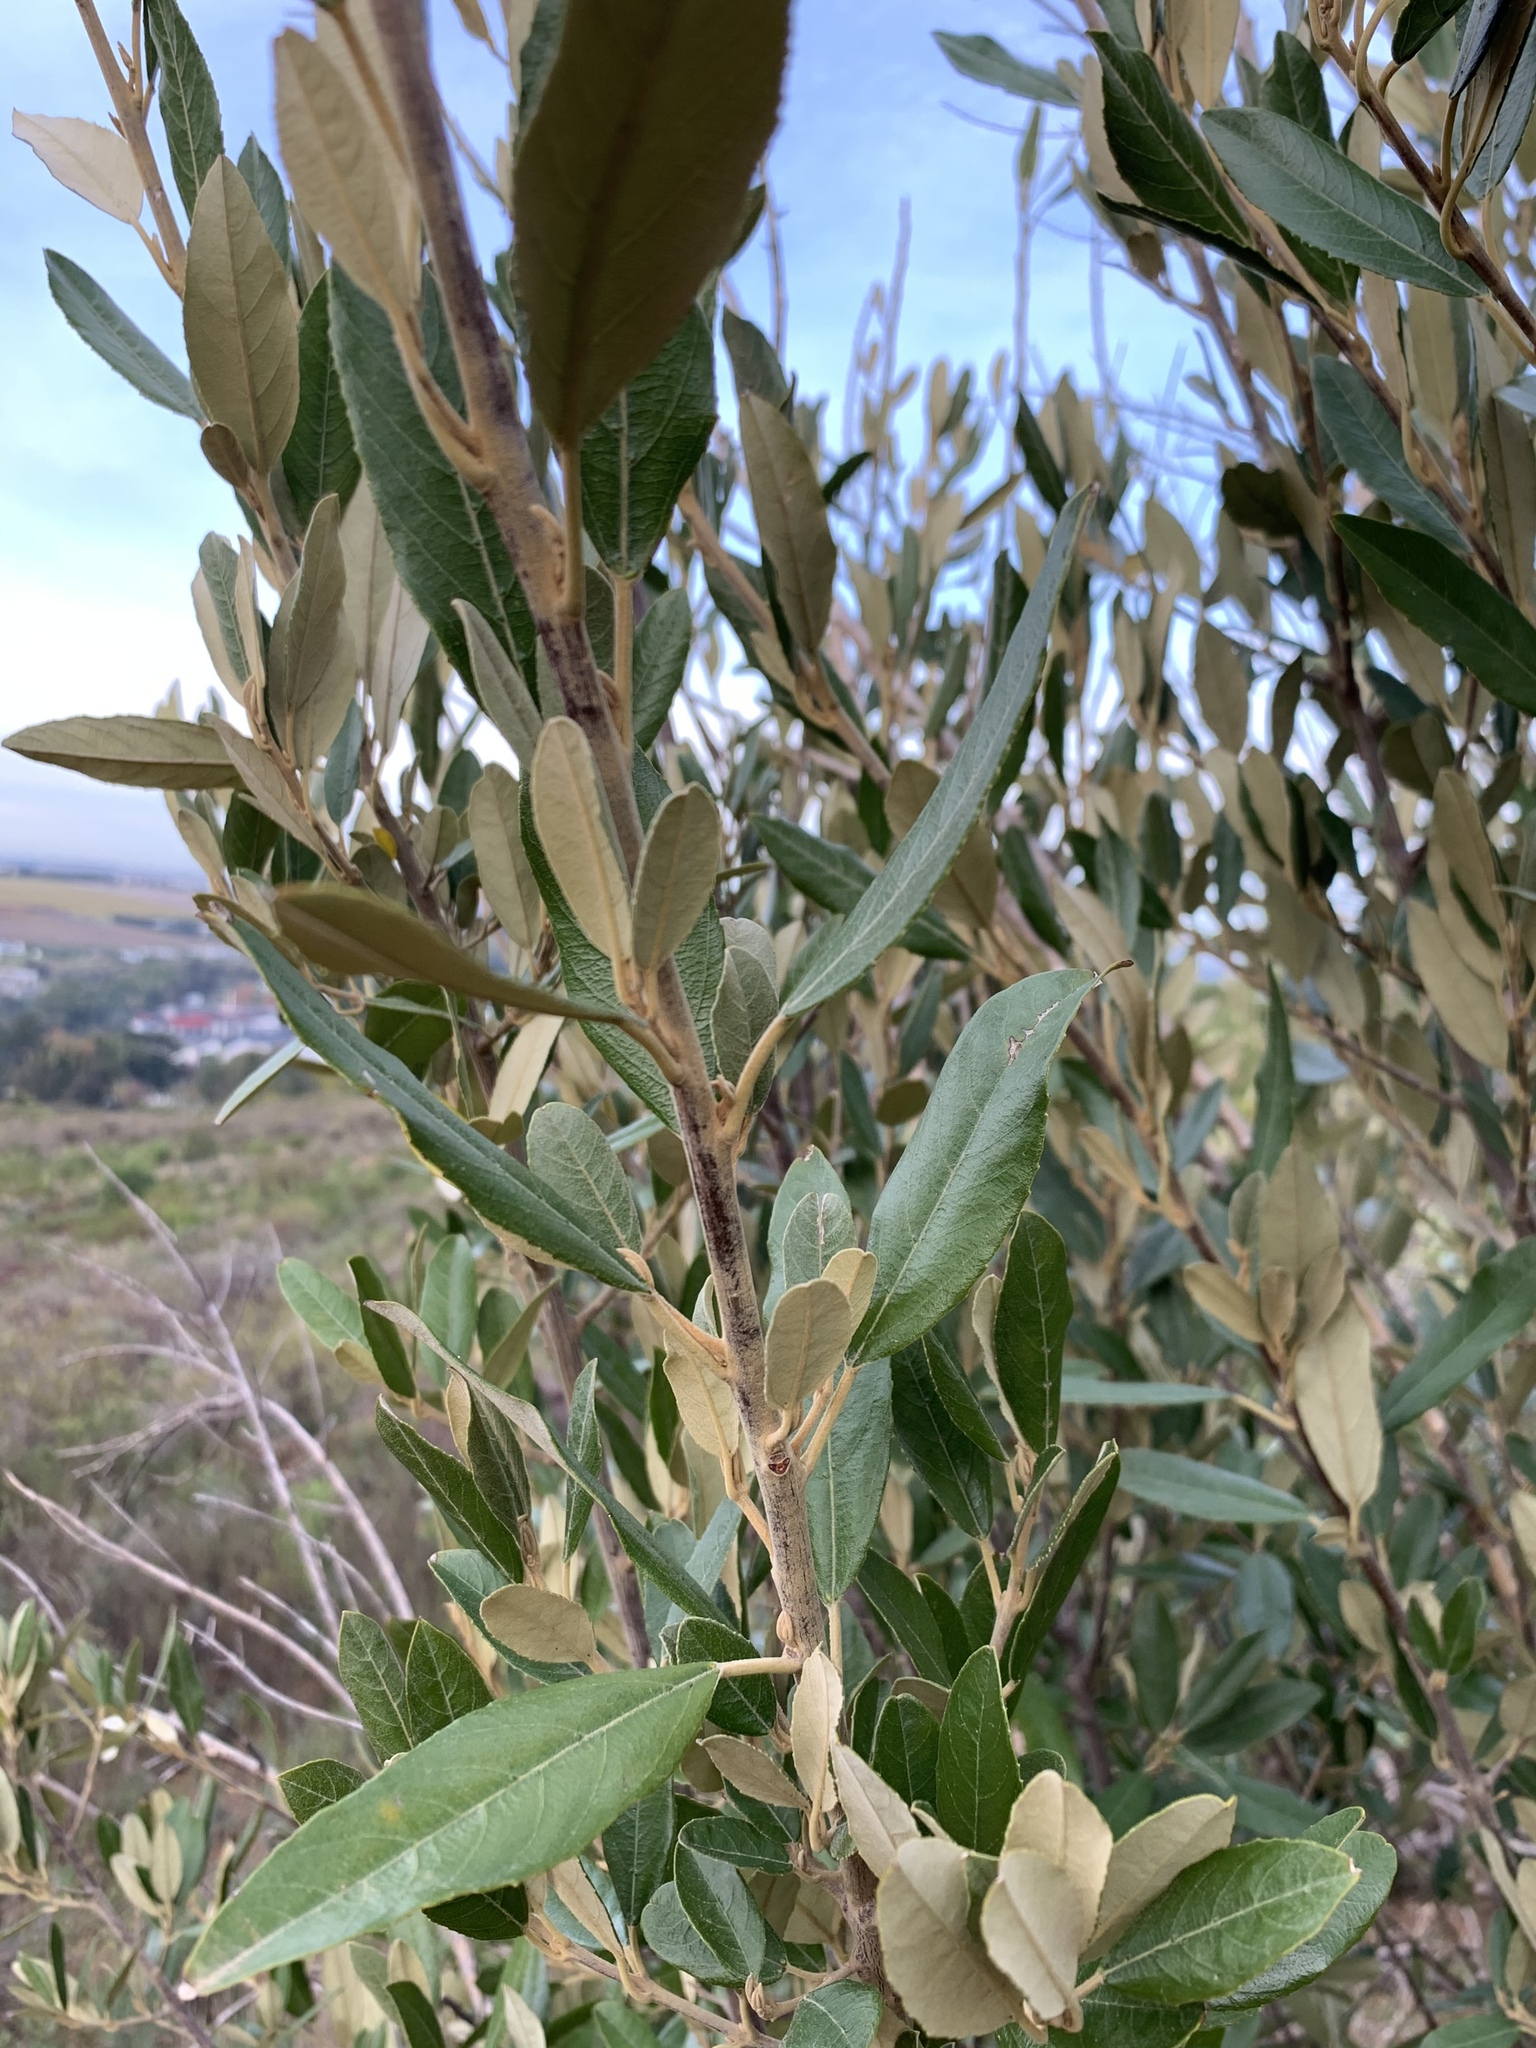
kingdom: Plantae
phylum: Tracheophyta
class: Magnoliopsida
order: Malpighiales
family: Achariaceae
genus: Kiggelaria
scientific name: Kiggelaria africana
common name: Wild peach
